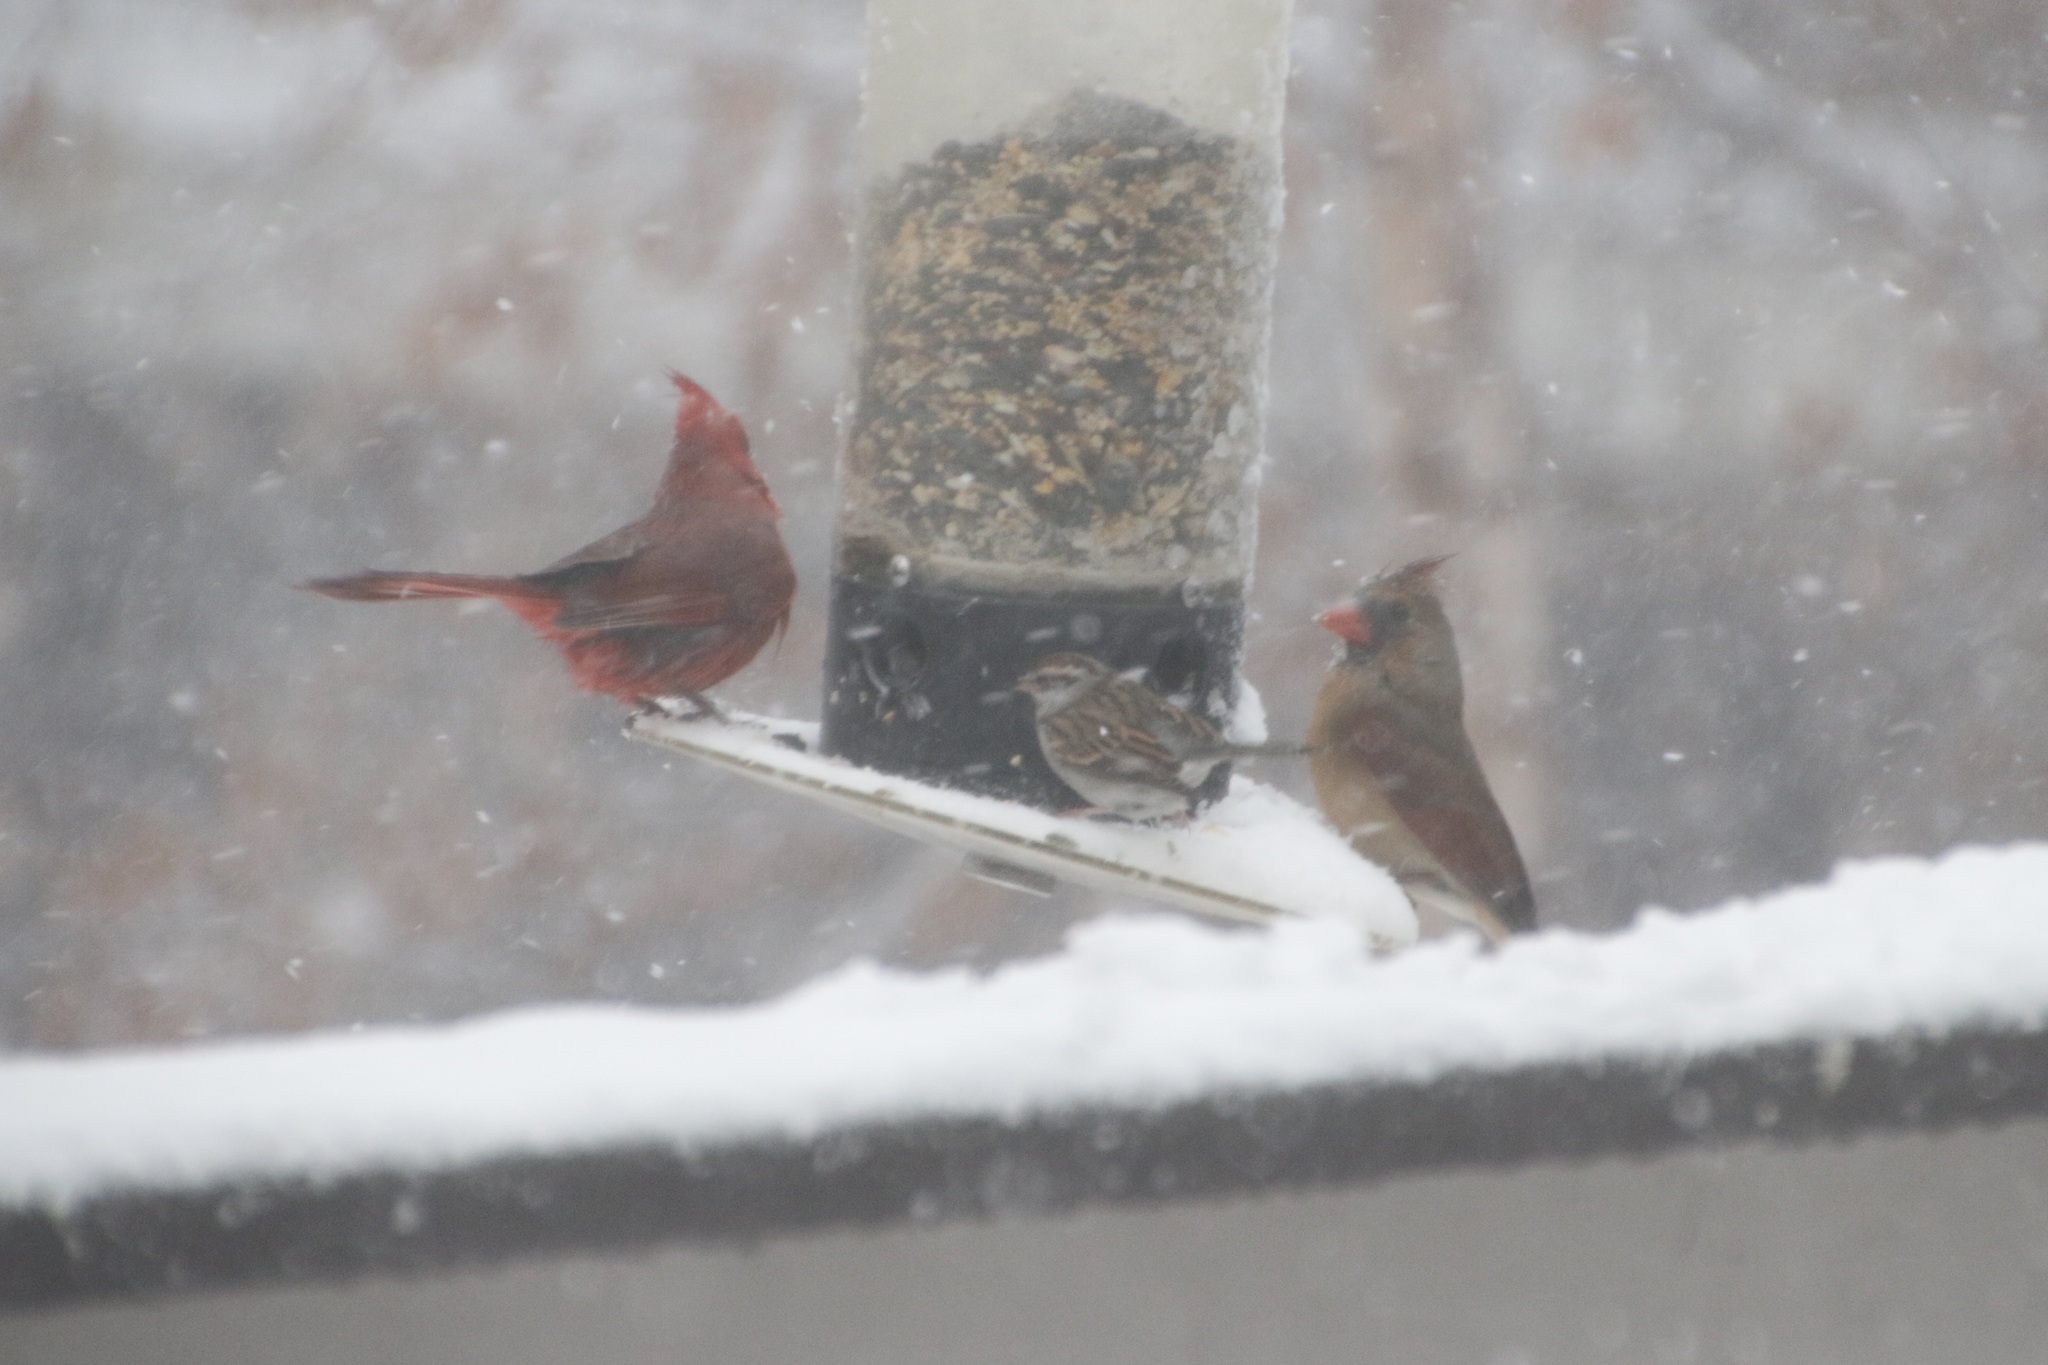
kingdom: Animalia
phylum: Chordata
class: Aves
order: Passeriformes
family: Cardinalidae
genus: Cardinalis
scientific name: Cardinalis cardinalis
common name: Northern cardinal
